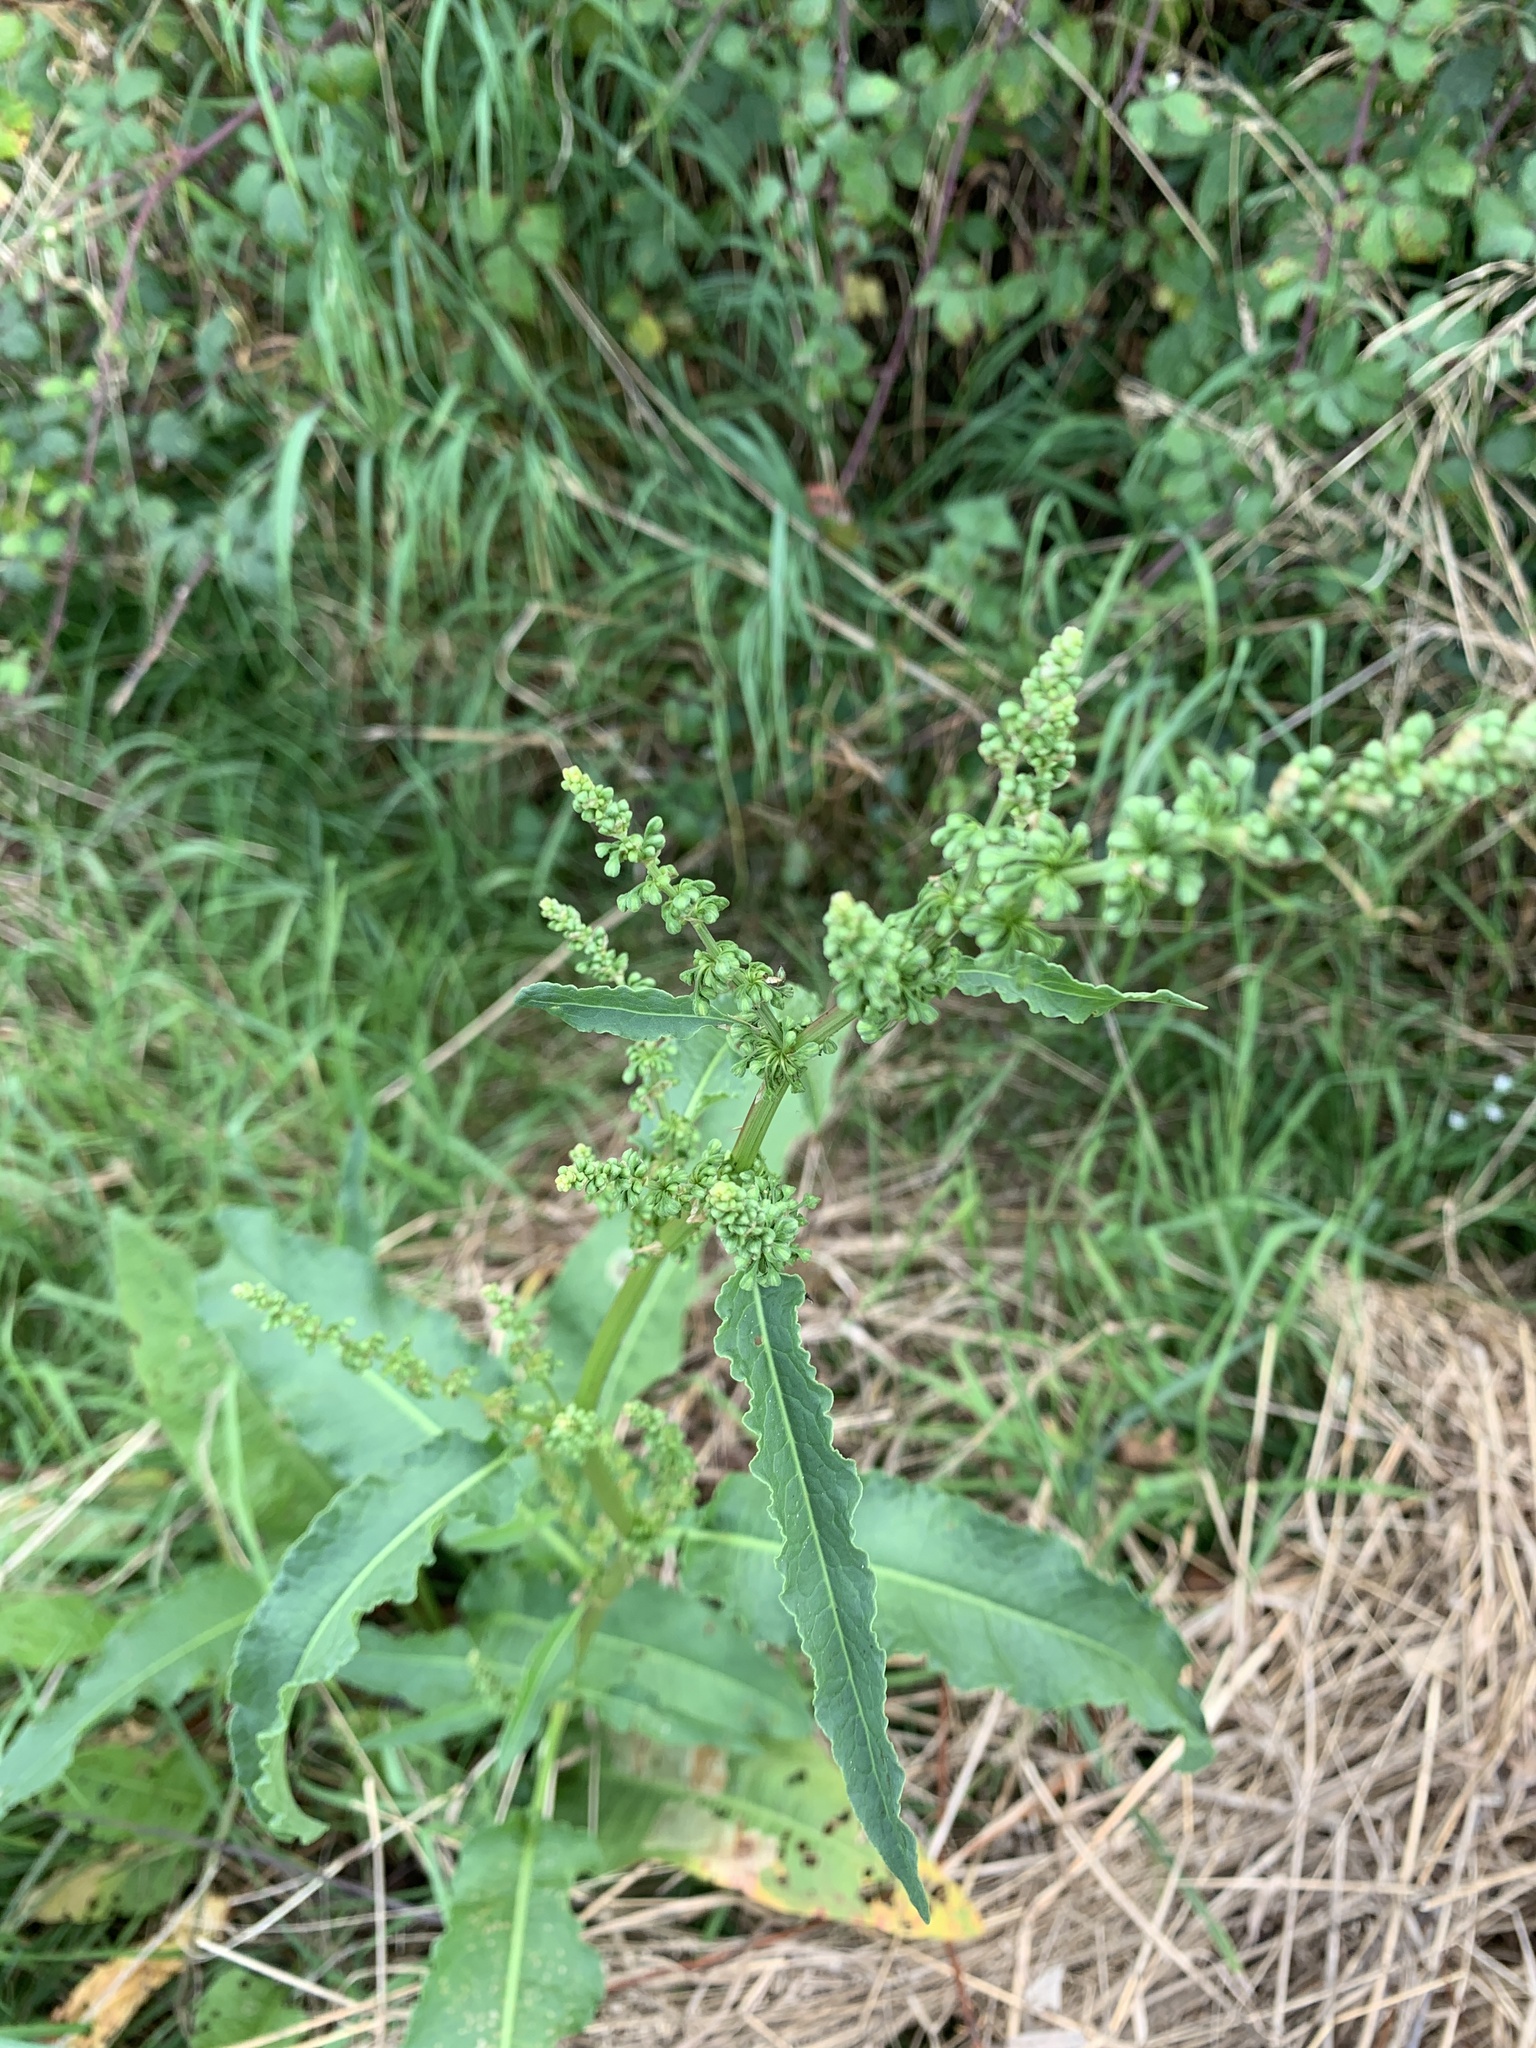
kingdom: Plantae
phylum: Tracheophyta
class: Magnoliopsida
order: Caryophyllales
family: Polygonaceae
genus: Rumex
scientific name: Rumex crispus
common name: Curled dock
